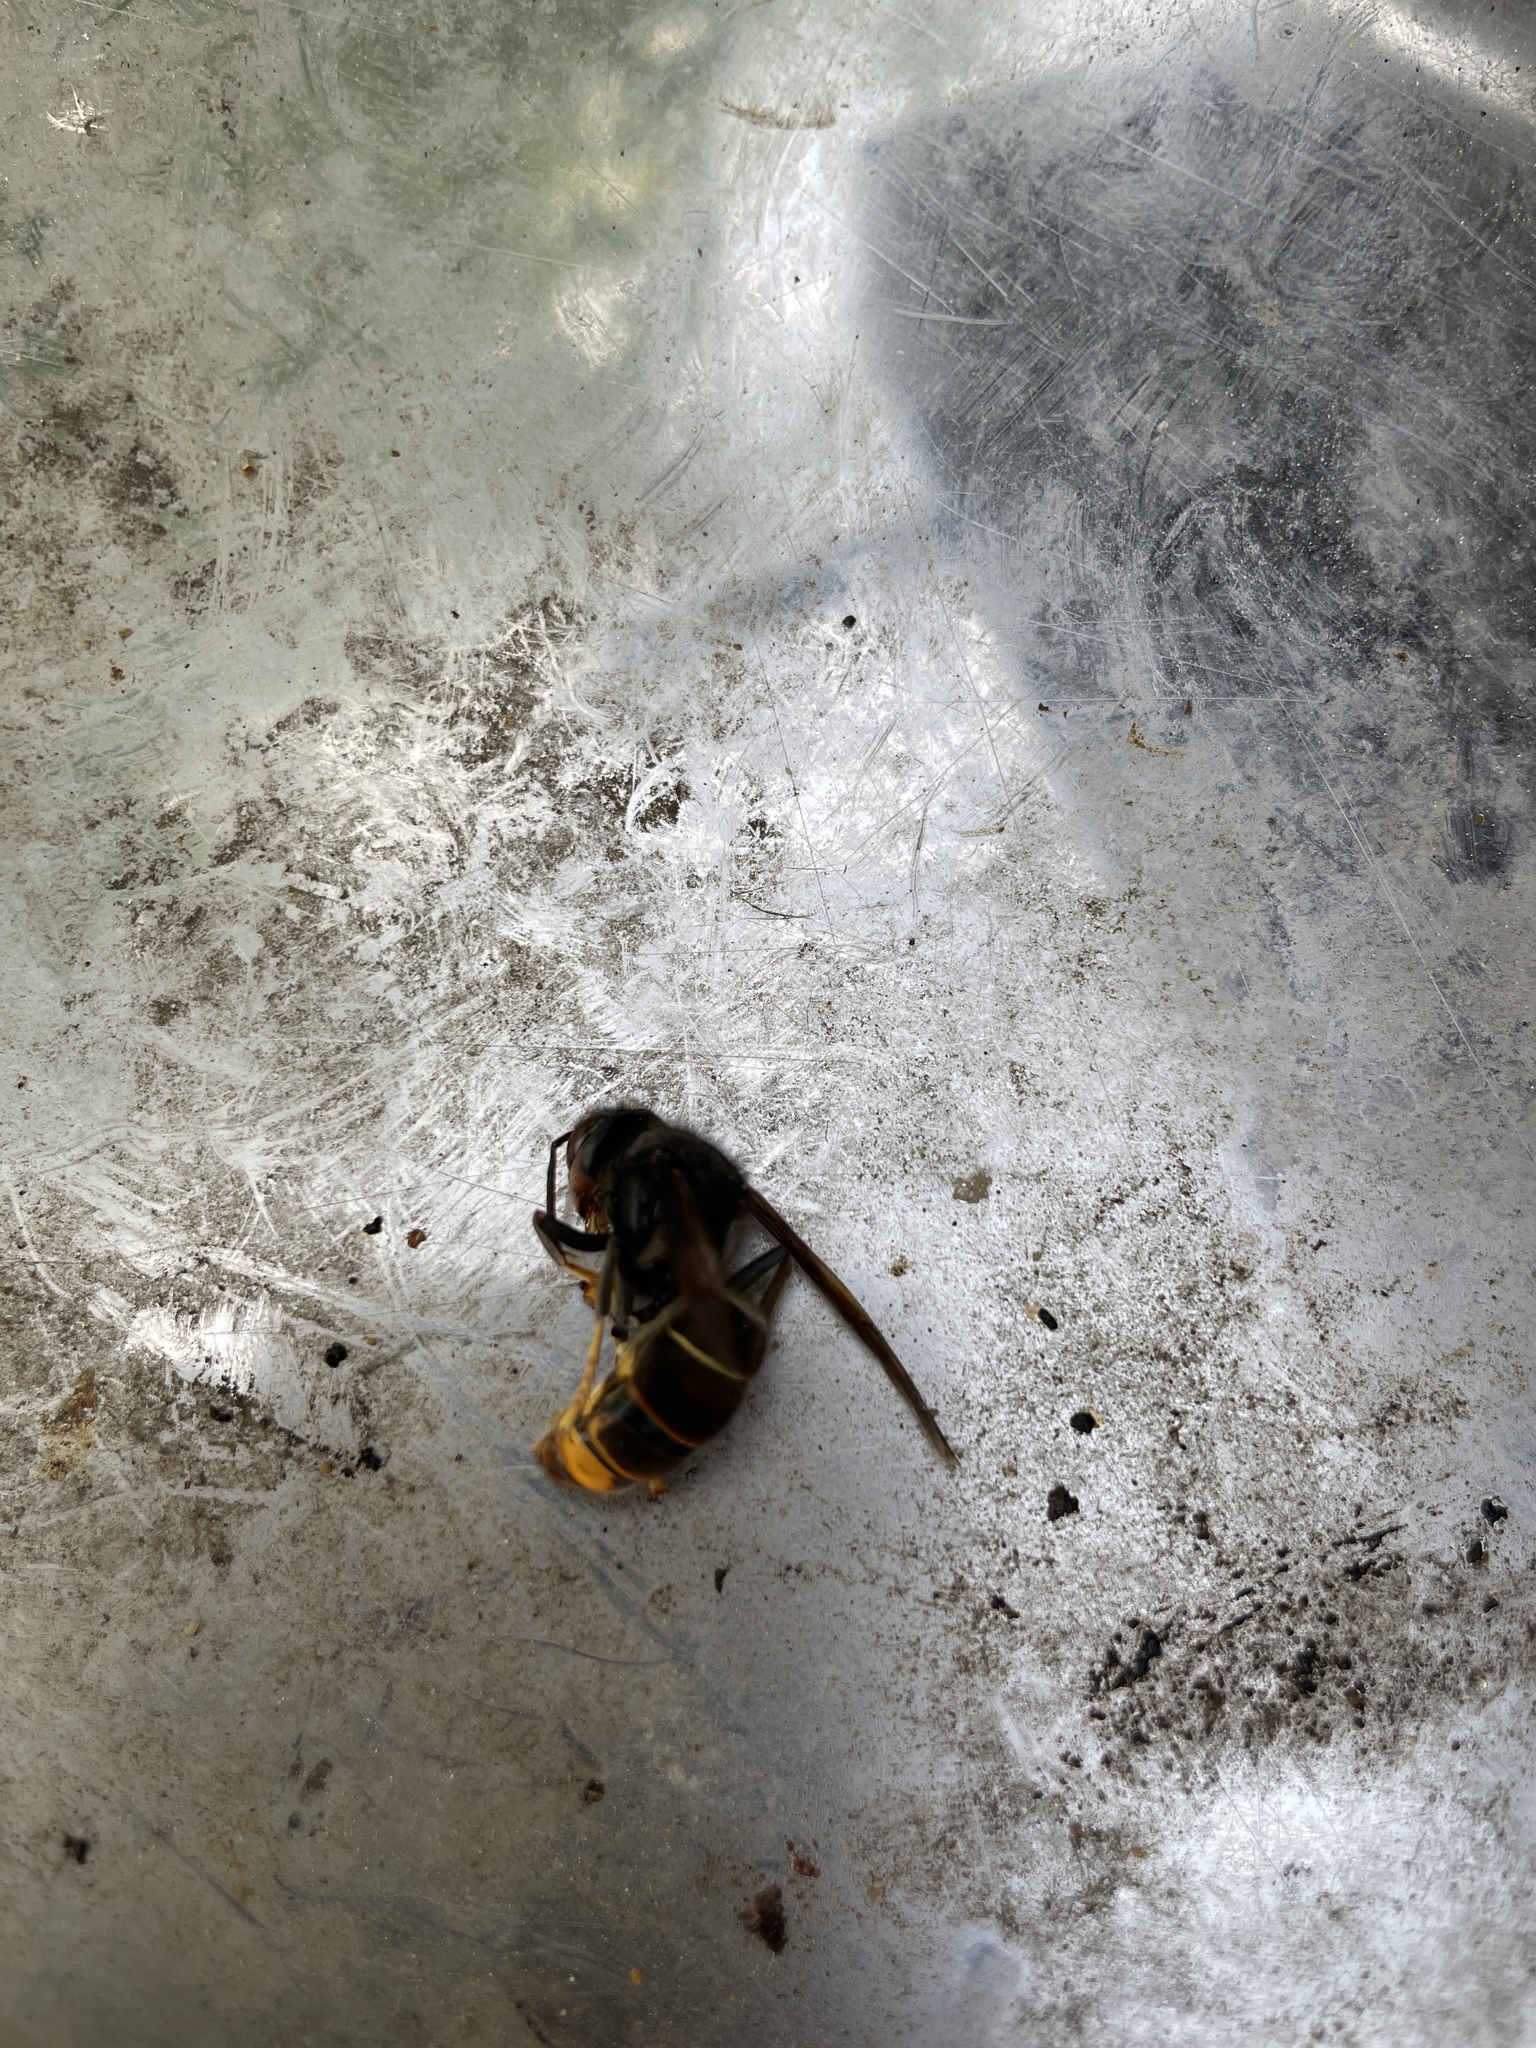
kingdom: Animalia
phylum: Arthropoda
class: Insecta
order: Hymenoptera
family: Vespidae
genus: Vespa
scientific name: Vespa velutina
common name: Asian hornet
